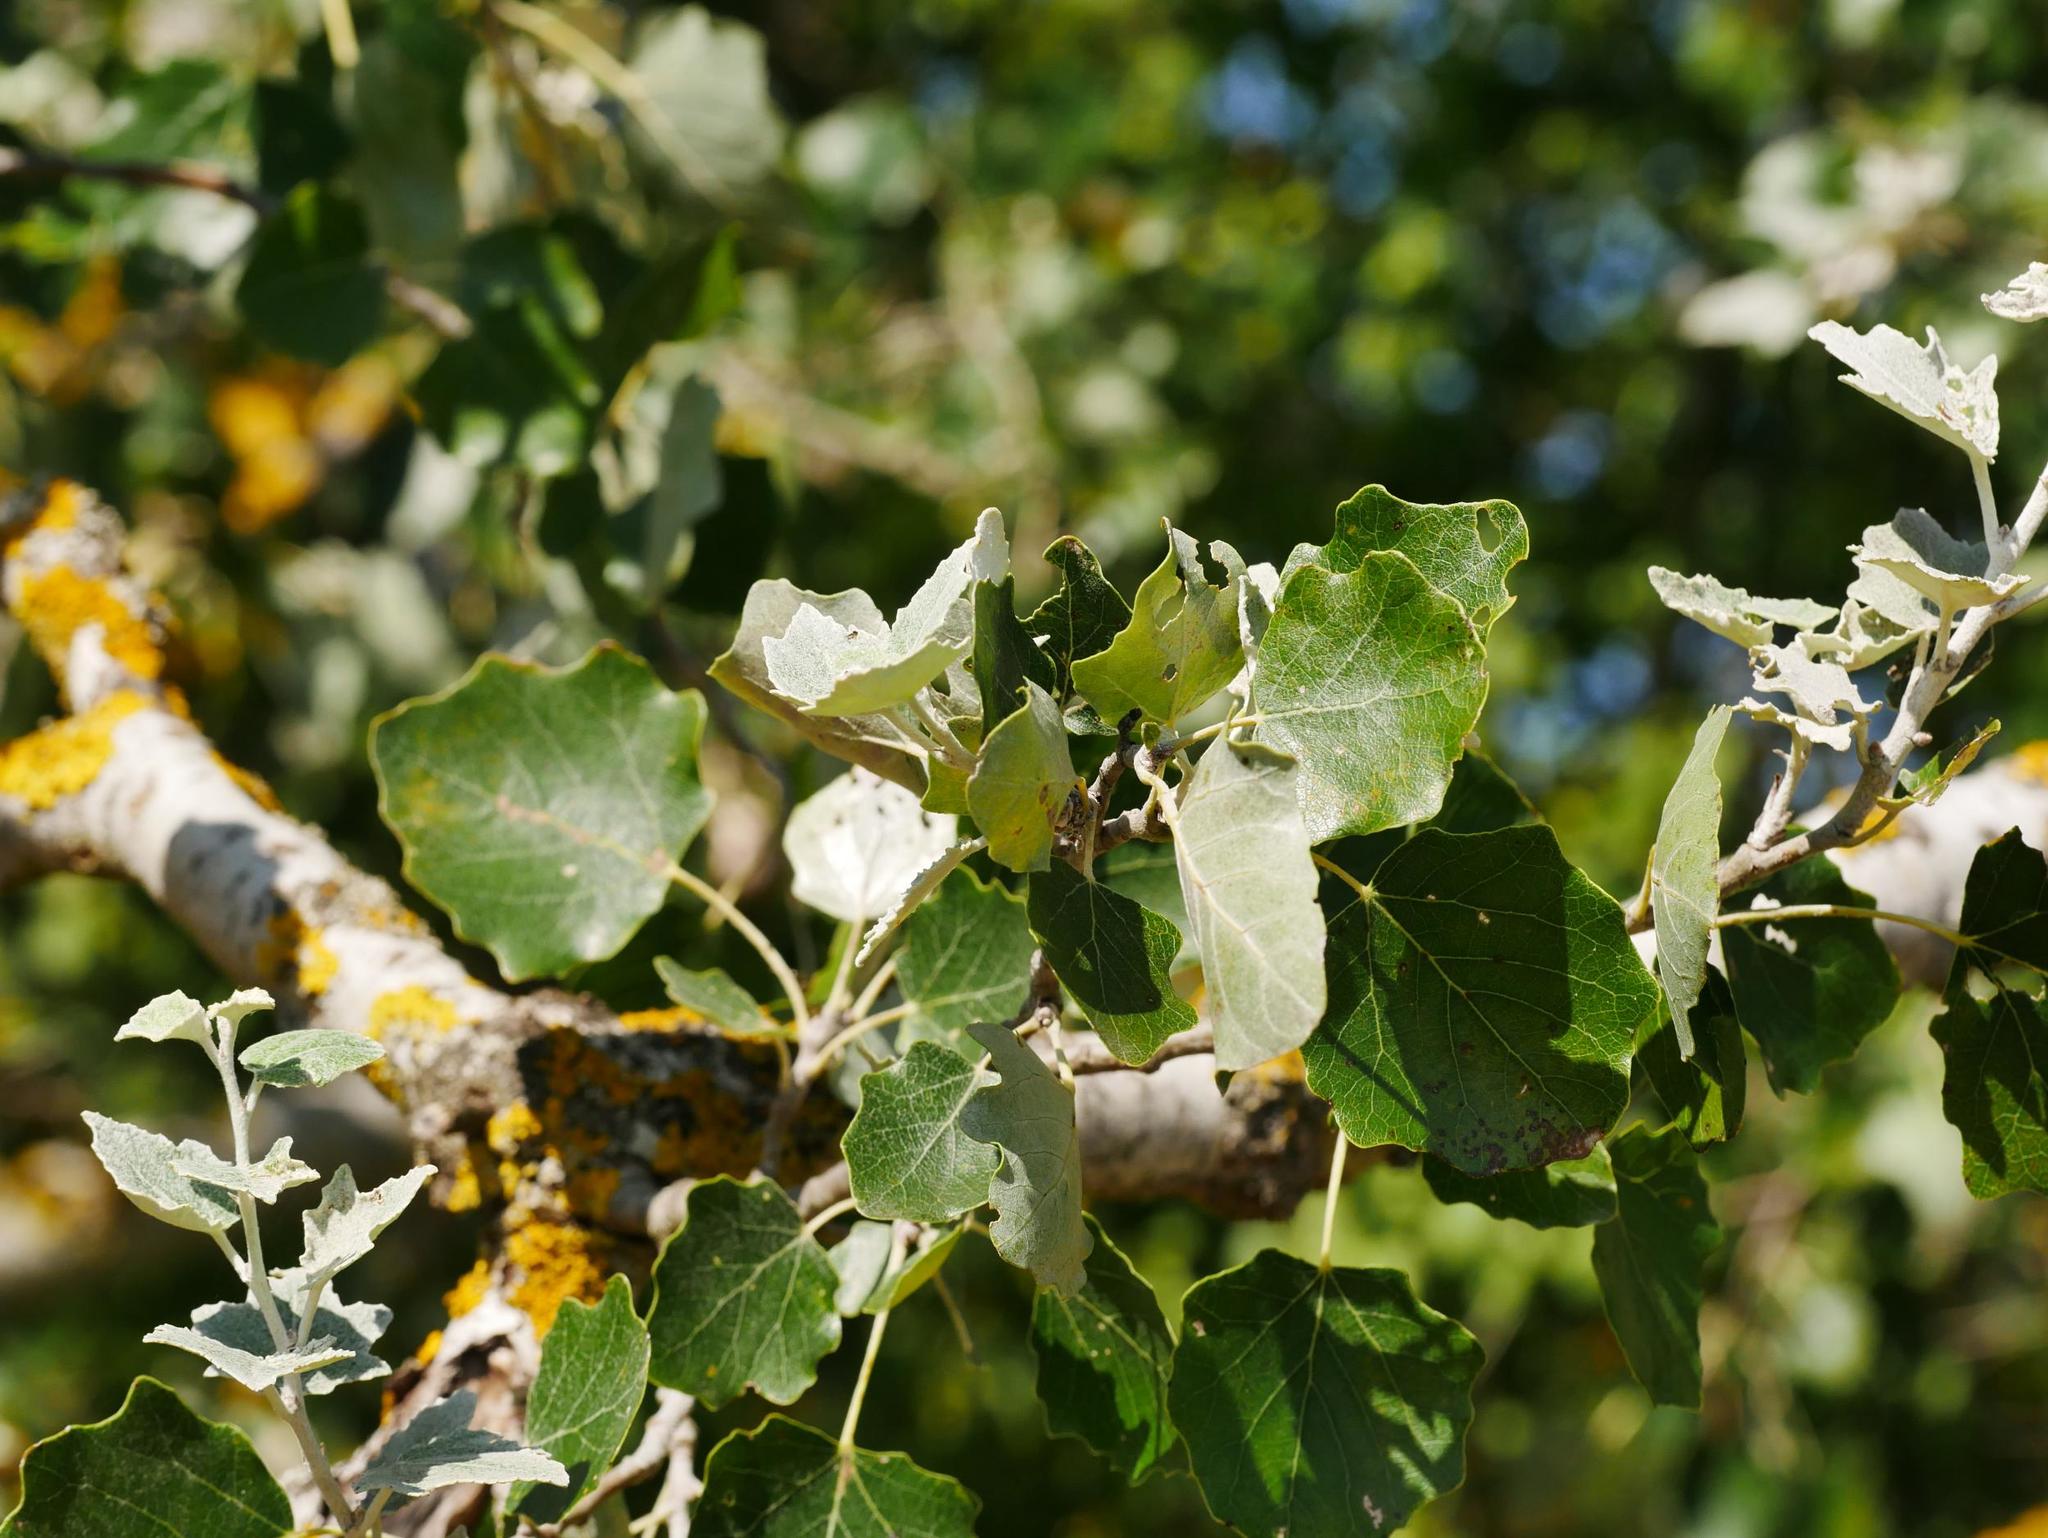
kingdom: Plantae
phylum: Tracheophyta
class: Magnoliopsida
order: Malpighiales
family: Salicaceae
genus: Populus
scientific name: Populus alba
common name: White poplar
